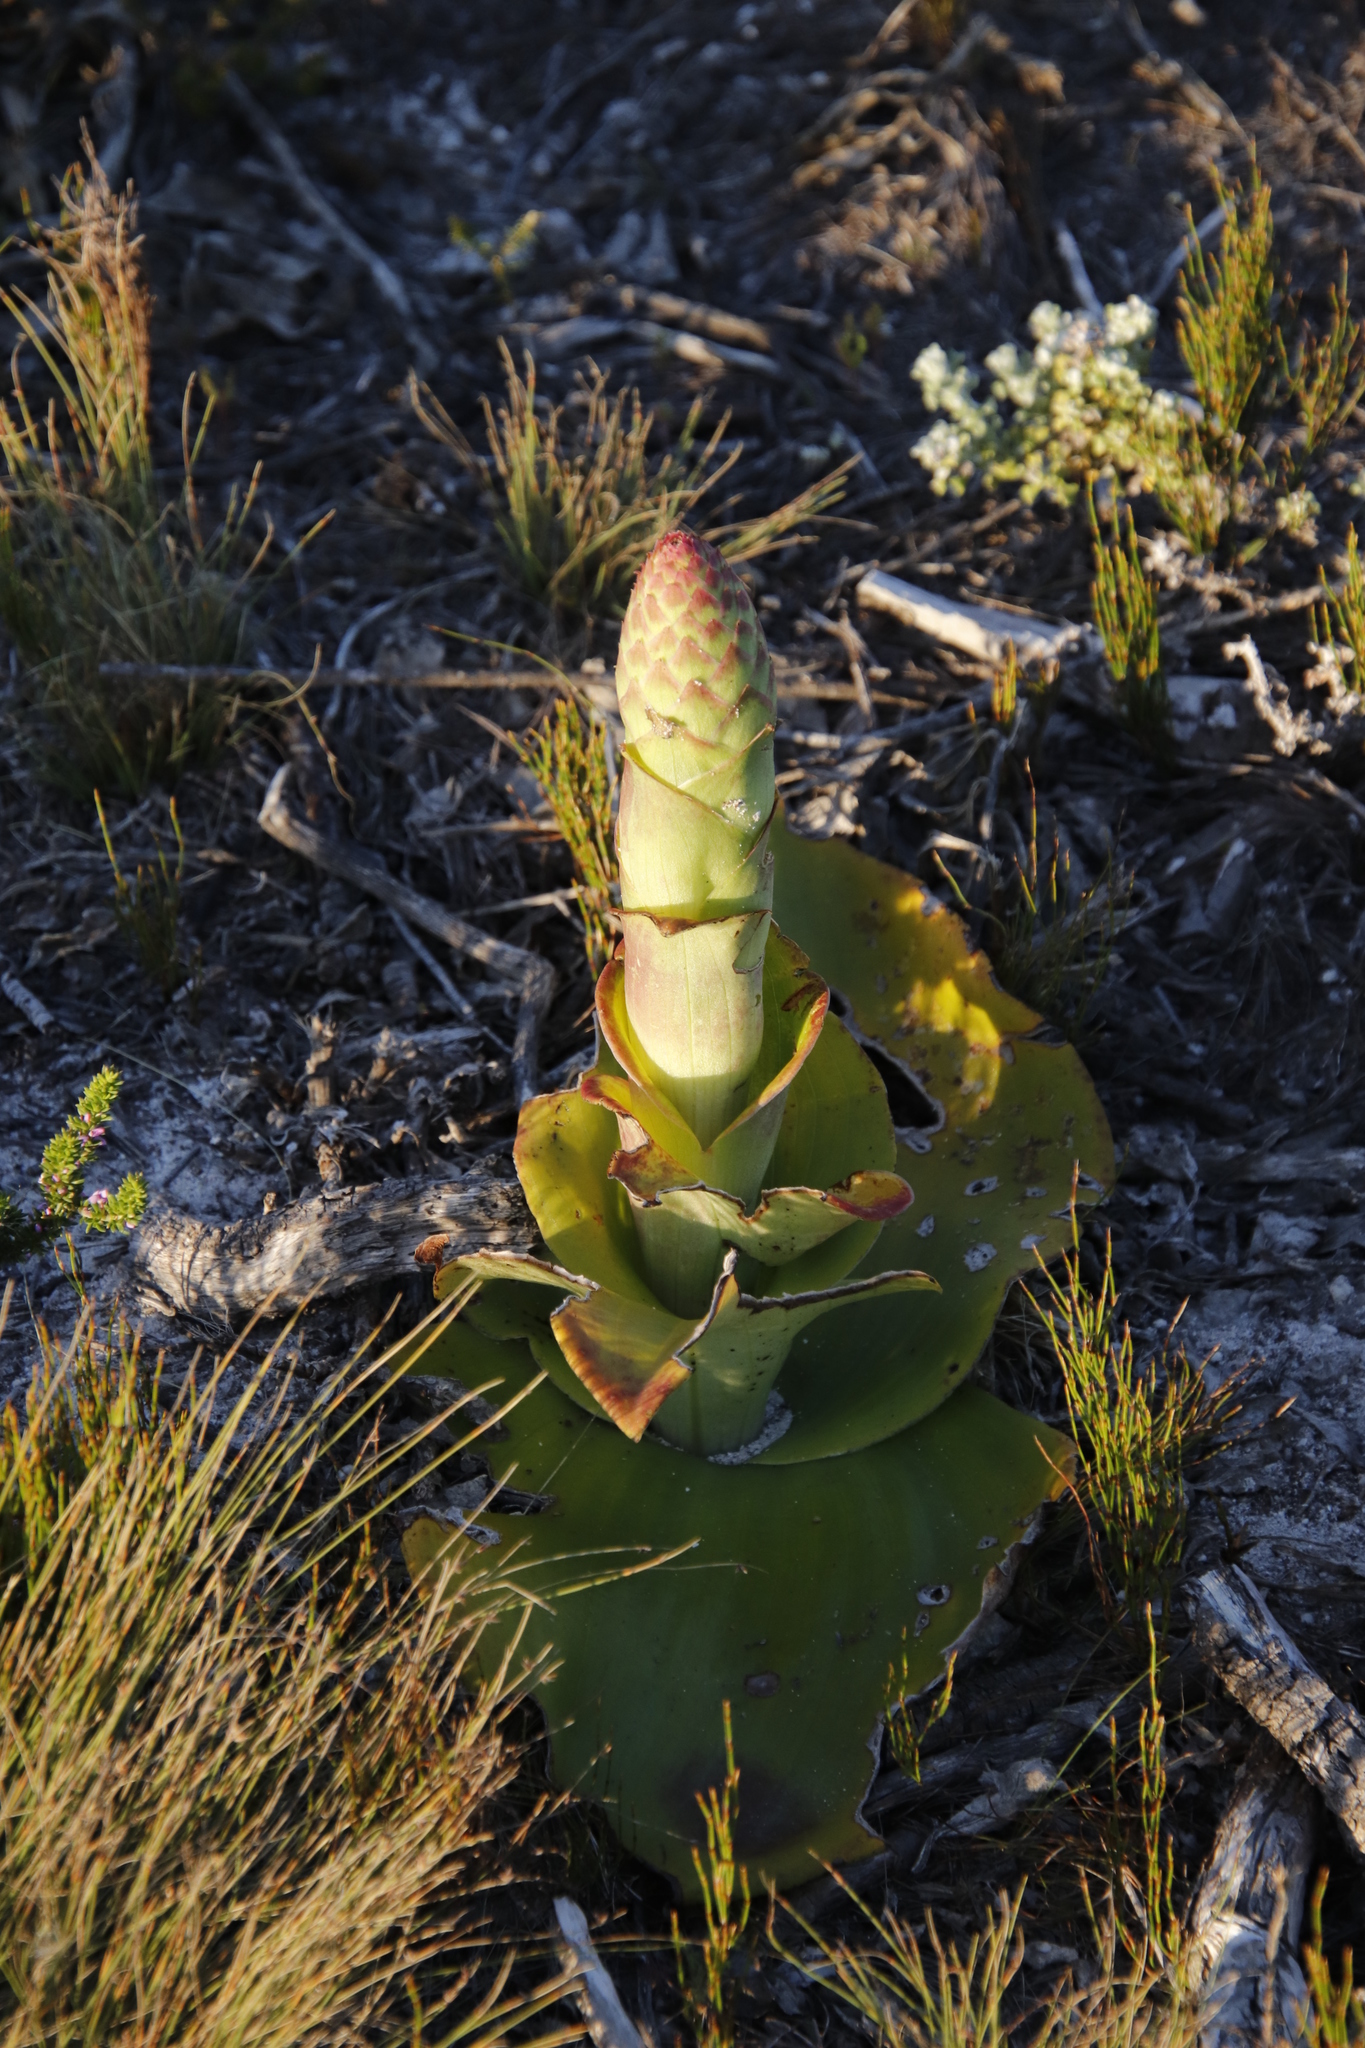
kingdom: Plantae
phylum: Tracheophyta
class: Liliopsida
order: Asparagales
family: Orchidaceae
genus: Satyrium
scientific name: Satyrium carneum
